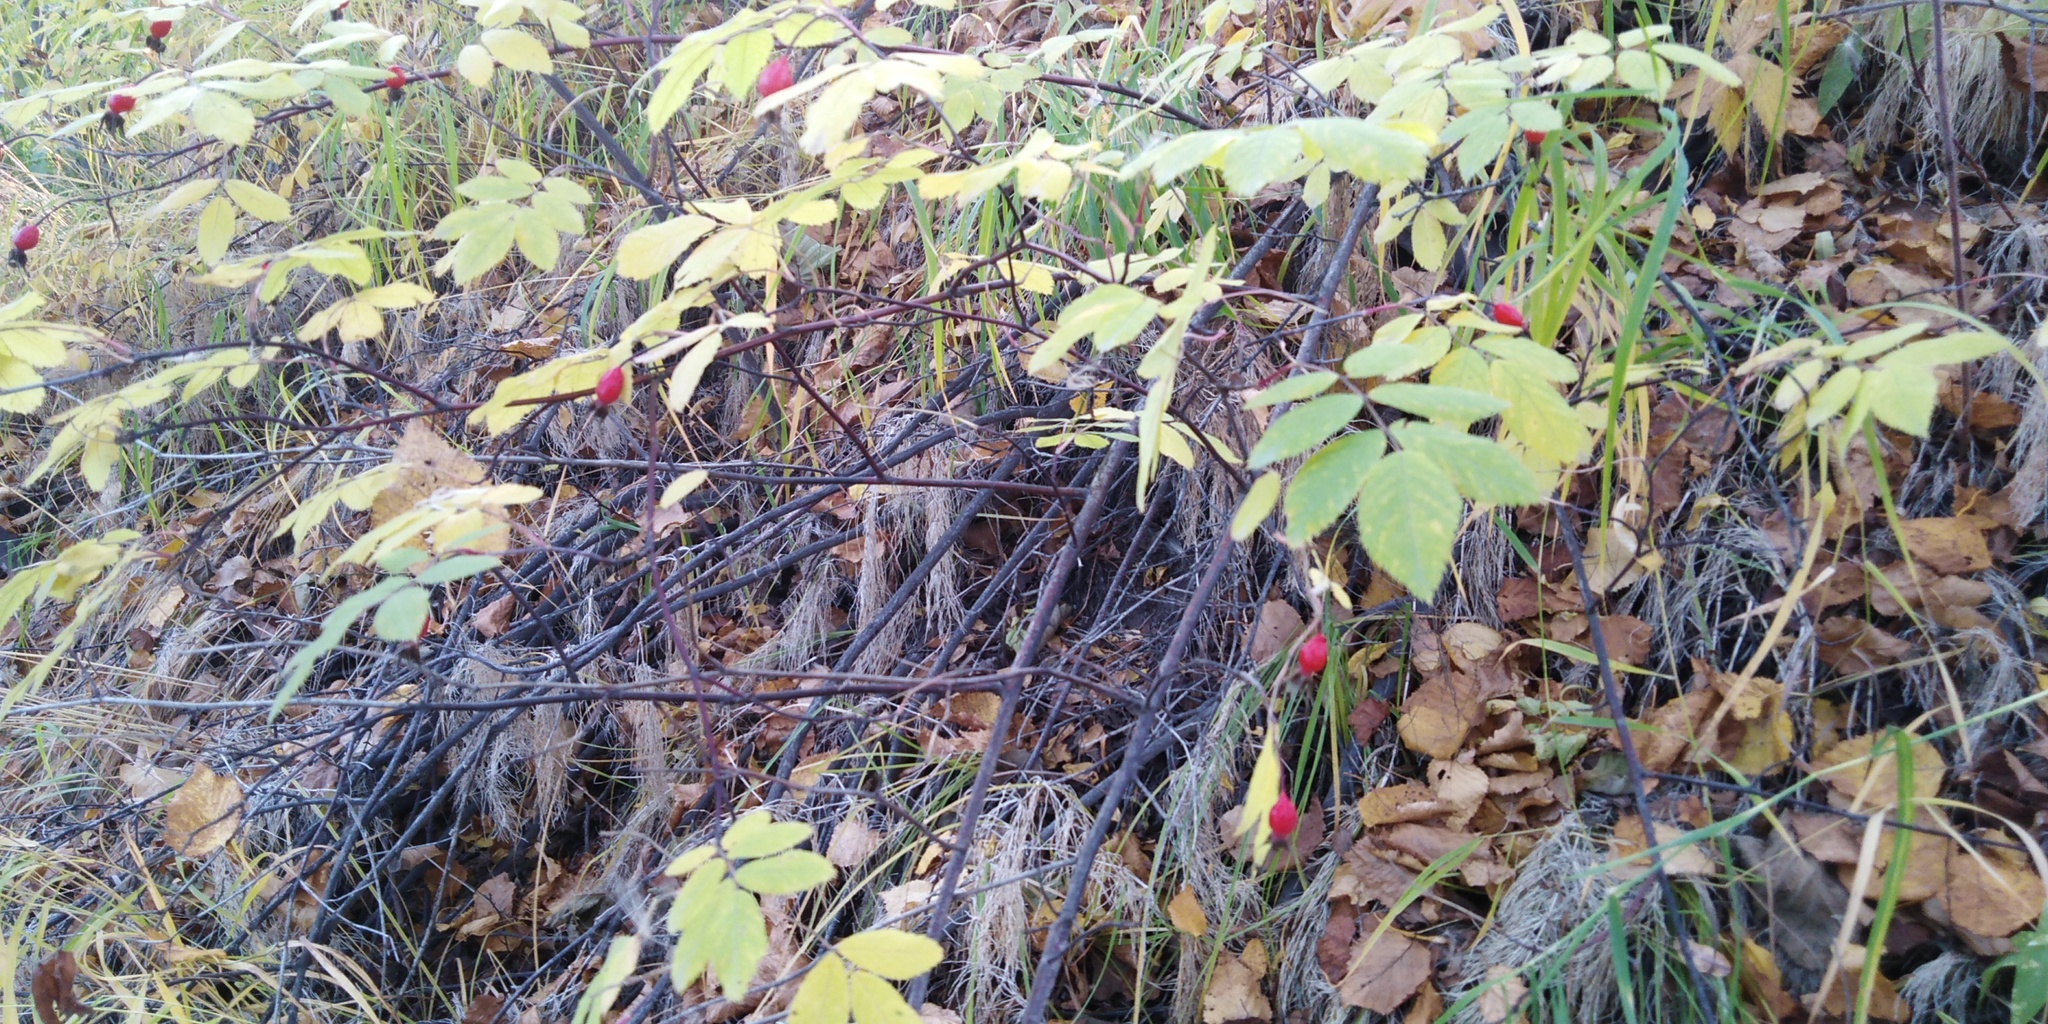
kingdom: Plantae
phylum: Tracheophyta
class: Magnoliopsida
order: Rosales
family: Rosaceae
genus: Rosa
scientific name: Rosa davurica
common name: Amur rose
